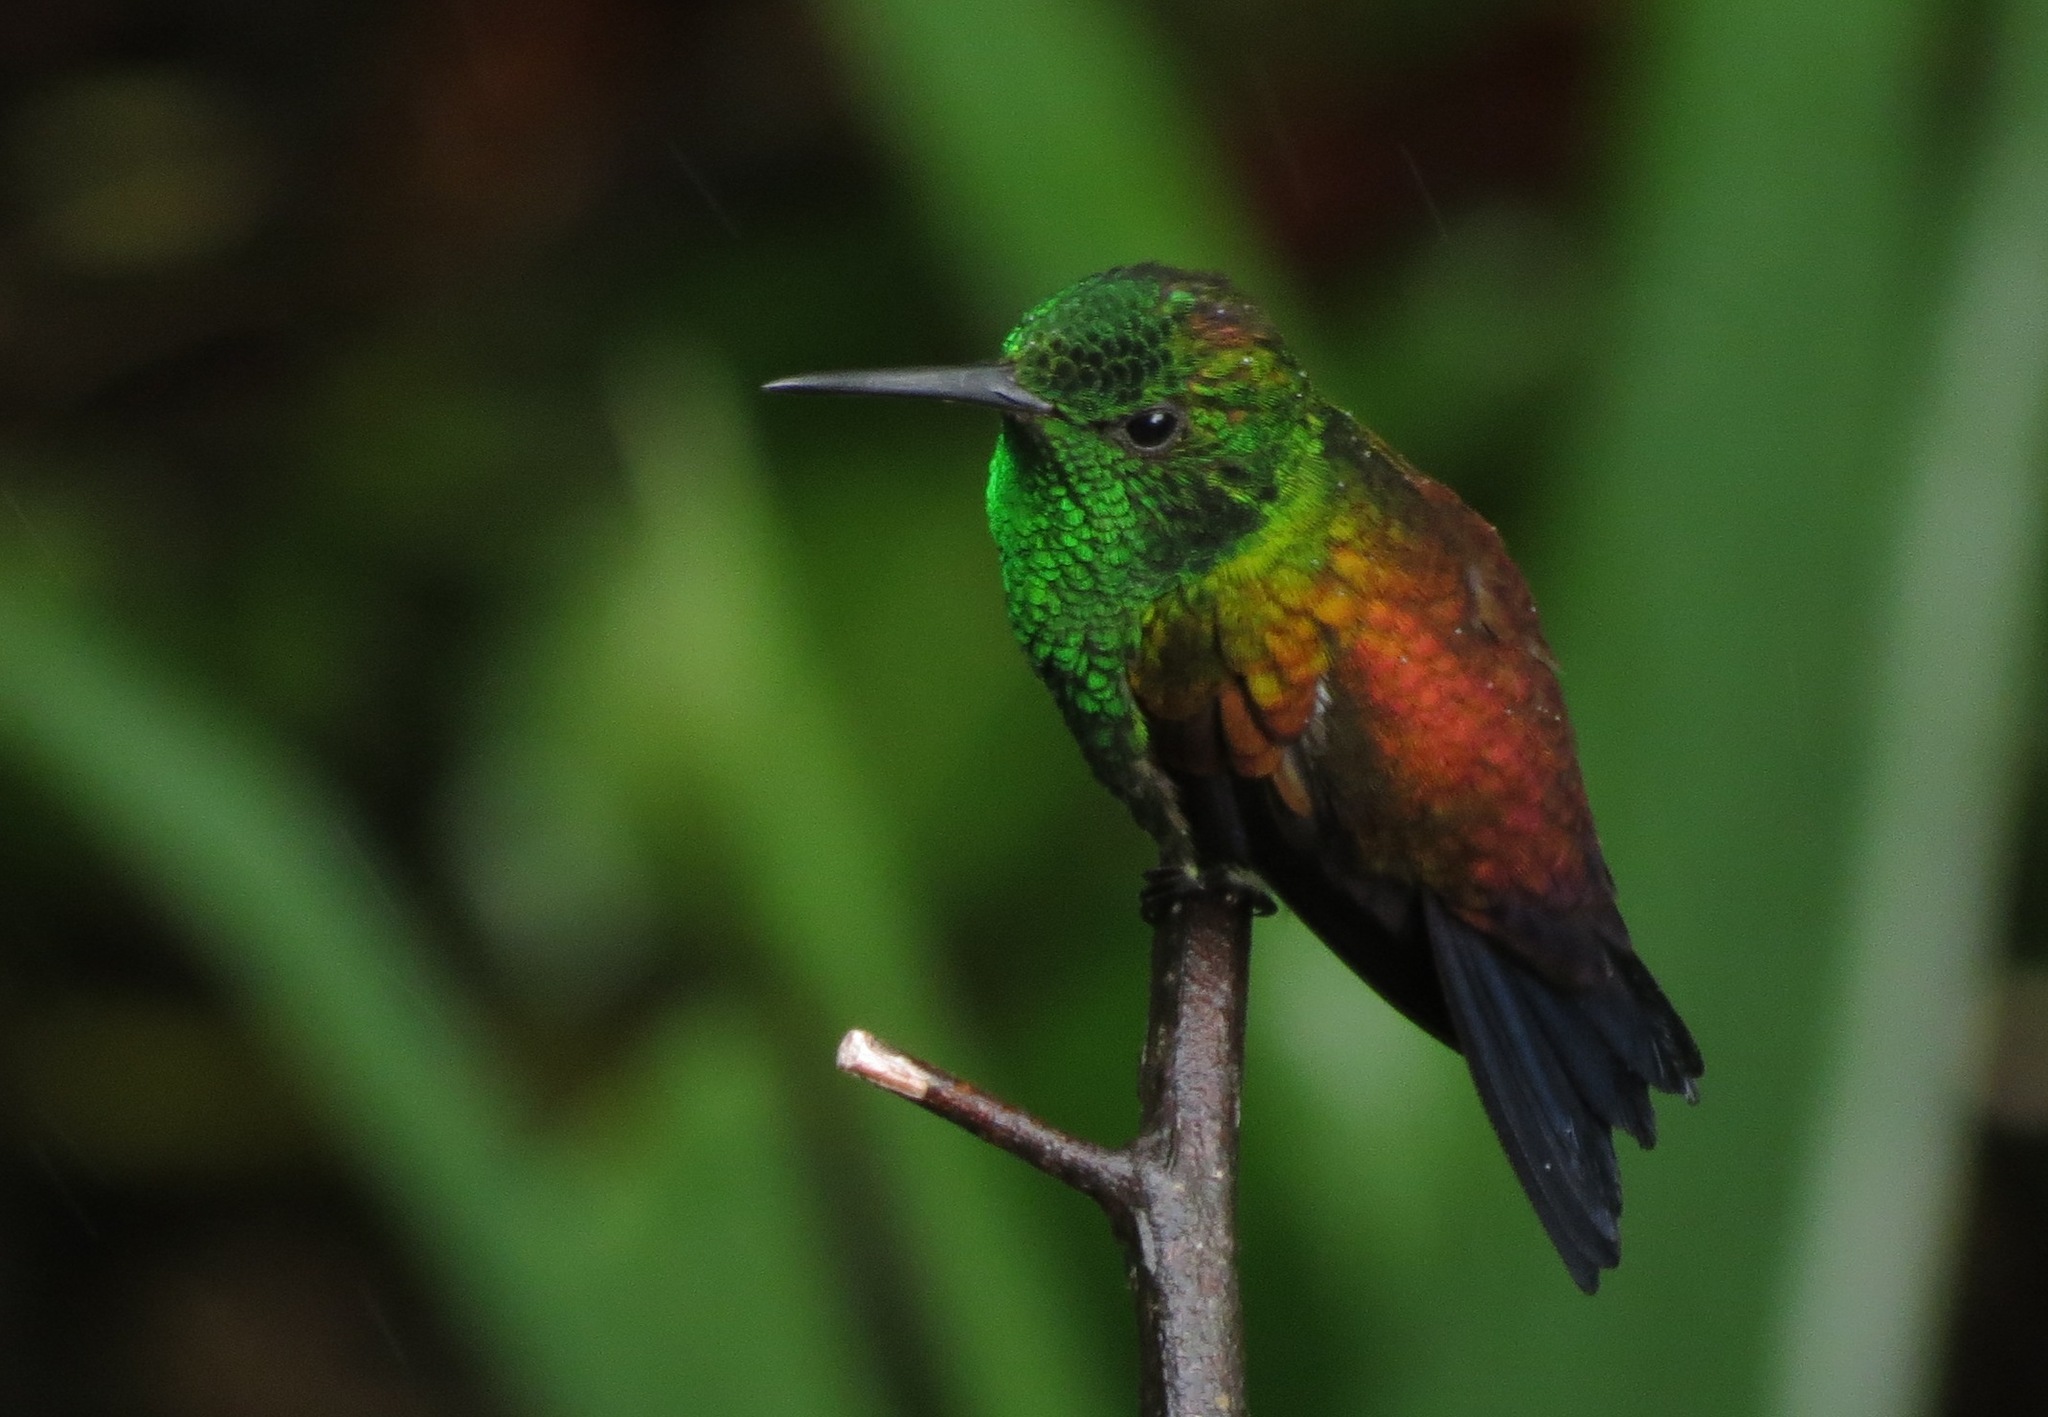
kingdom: Animalia
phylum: Chordata
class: Aves
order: Apodiformes
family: Trochilidae
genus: Saucerottia
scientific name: Saucerottia tobaci
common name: Copper-rumped hummingbird
